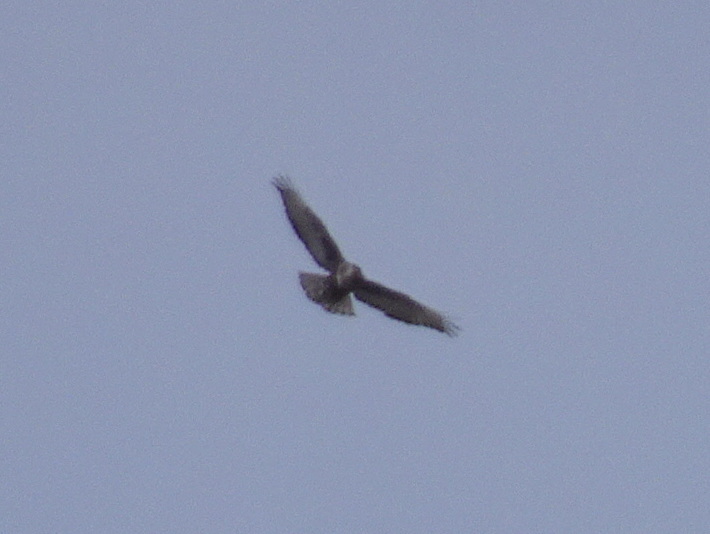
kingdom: Animalia
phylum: Chordata
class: Aves
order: Accipitriformes
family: Accipitridae
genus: Buteo
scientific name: Buteo jamaicensis
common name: Red-tailed hawk
